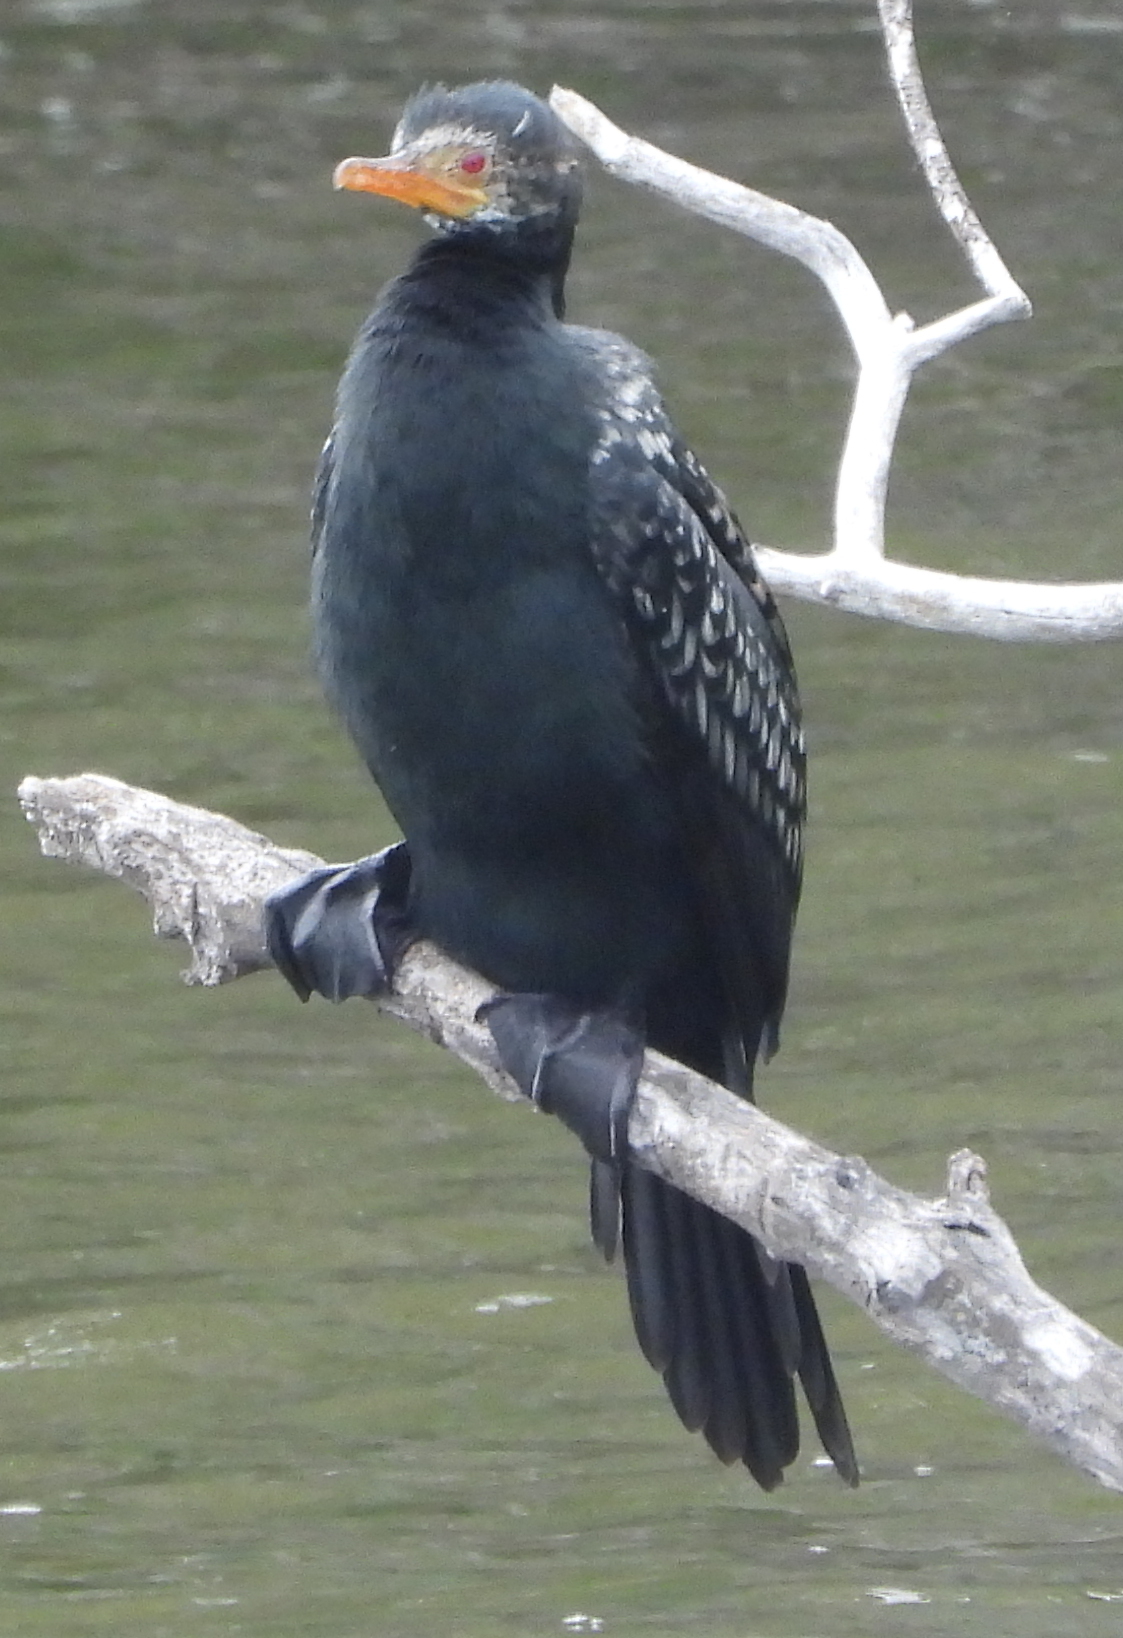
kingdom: Animalia
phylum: Chordata
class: Aves
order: Suliformes
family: Phalacrocoracidae
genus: Microcarbo
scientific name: Microcarbo africanus
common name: Long-tailed cormorant
